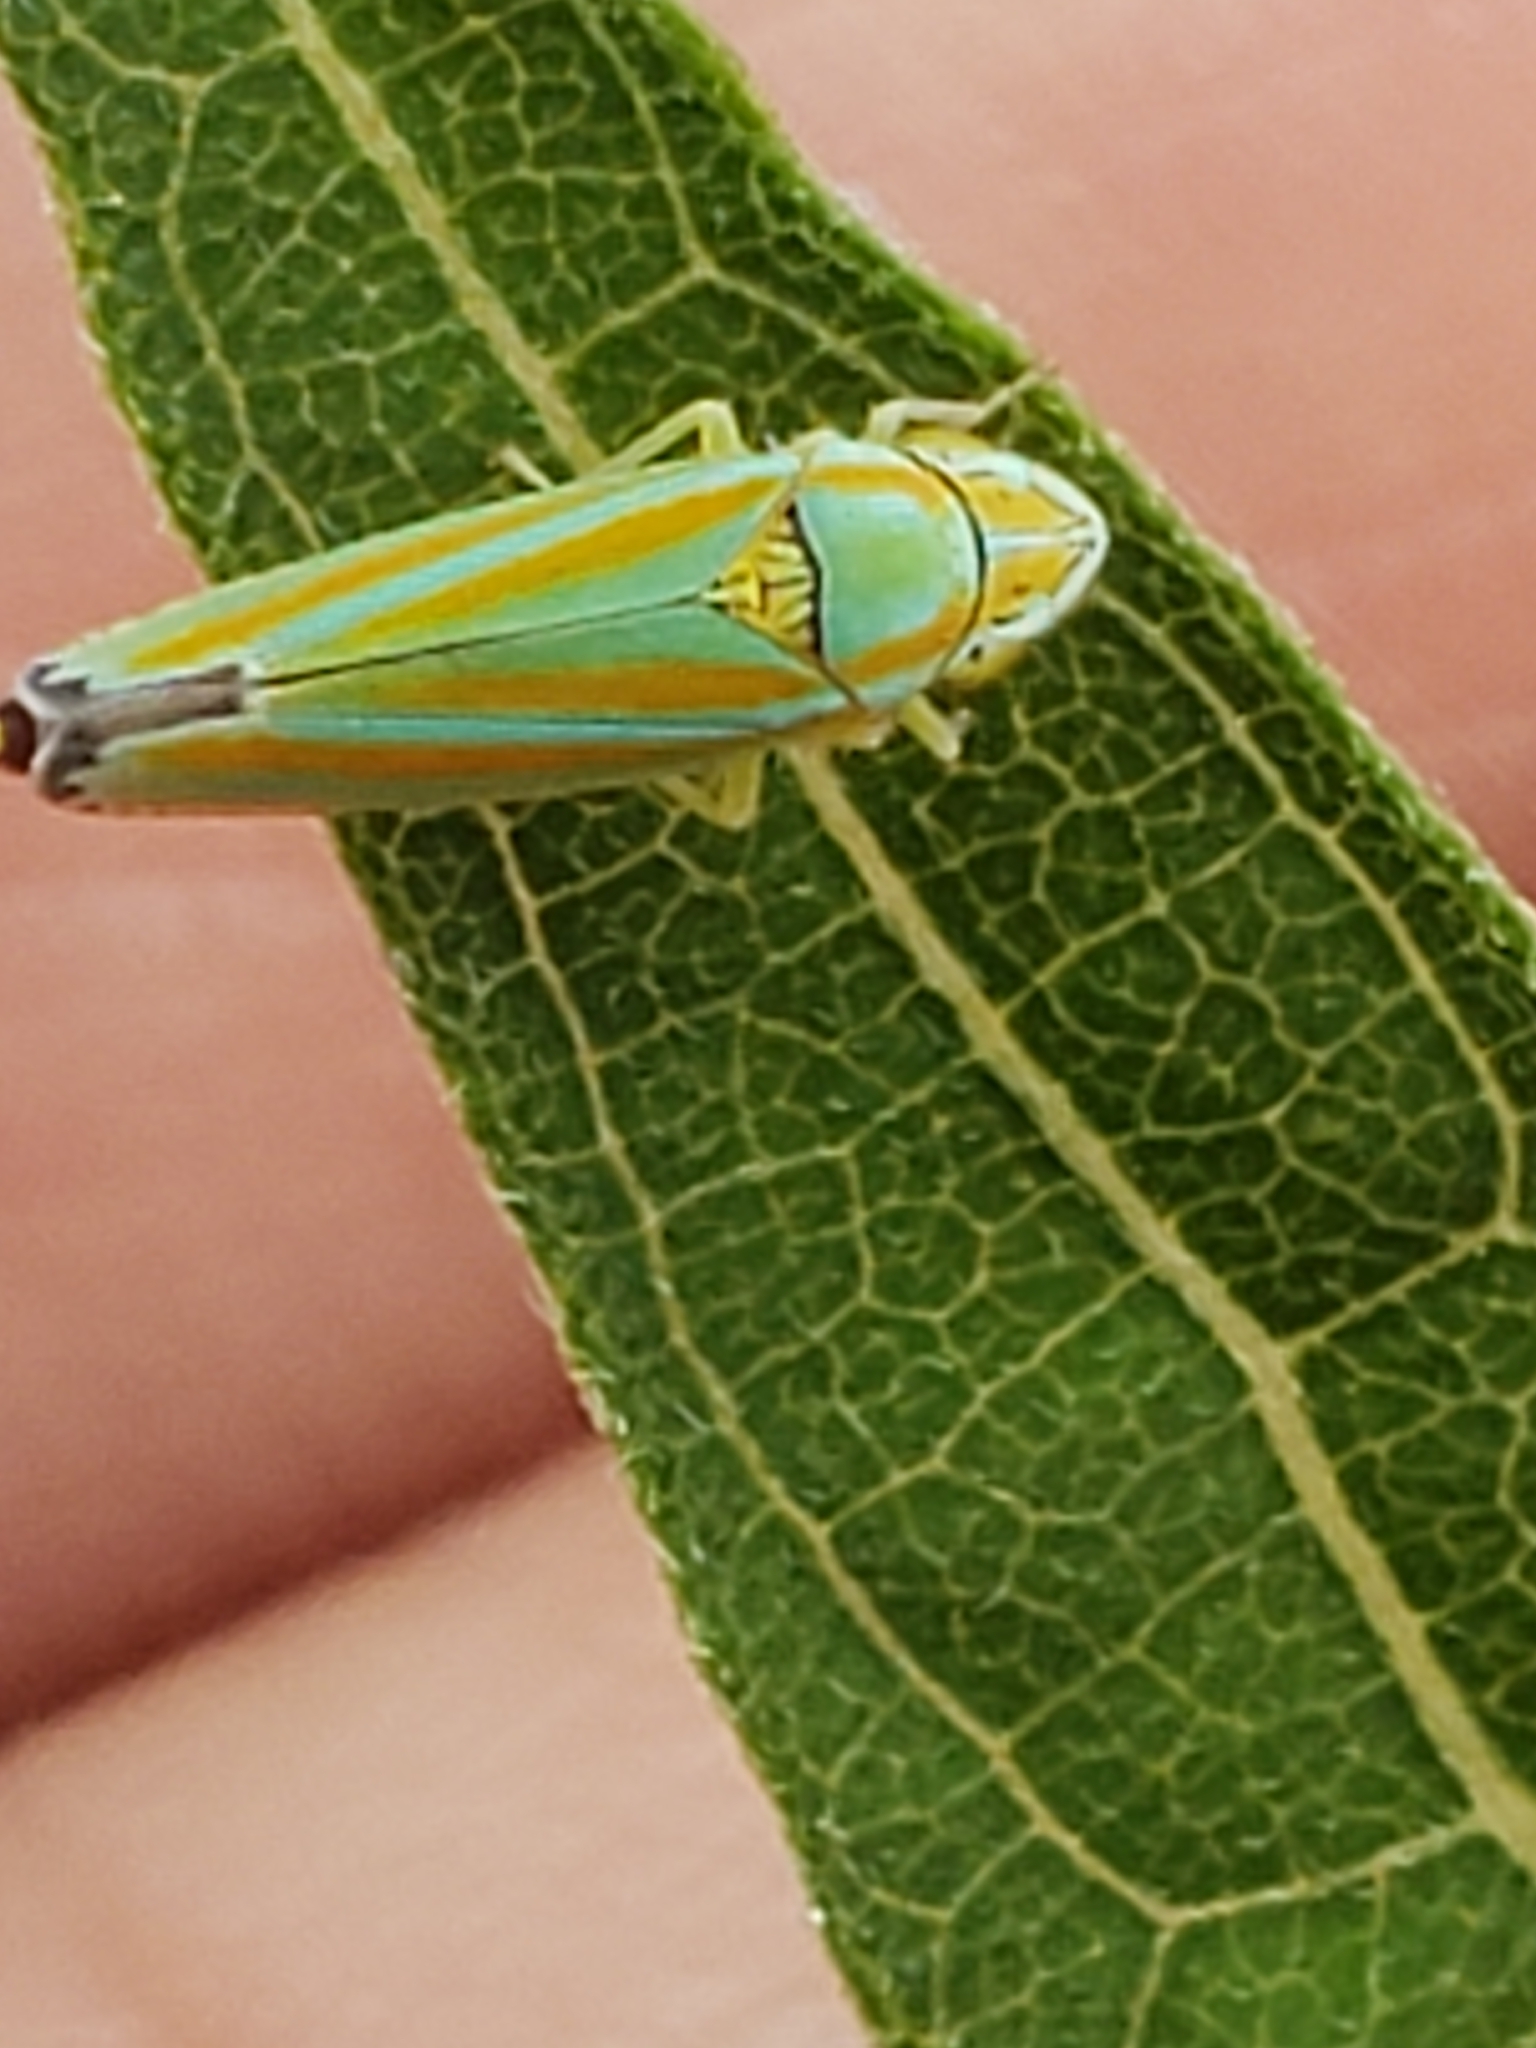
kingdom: Animalia
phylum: Arthropoda
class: Insecta
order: Hemiptera
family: Cicadellidae
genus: Graphocephala
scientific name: Graphocephala versuta
